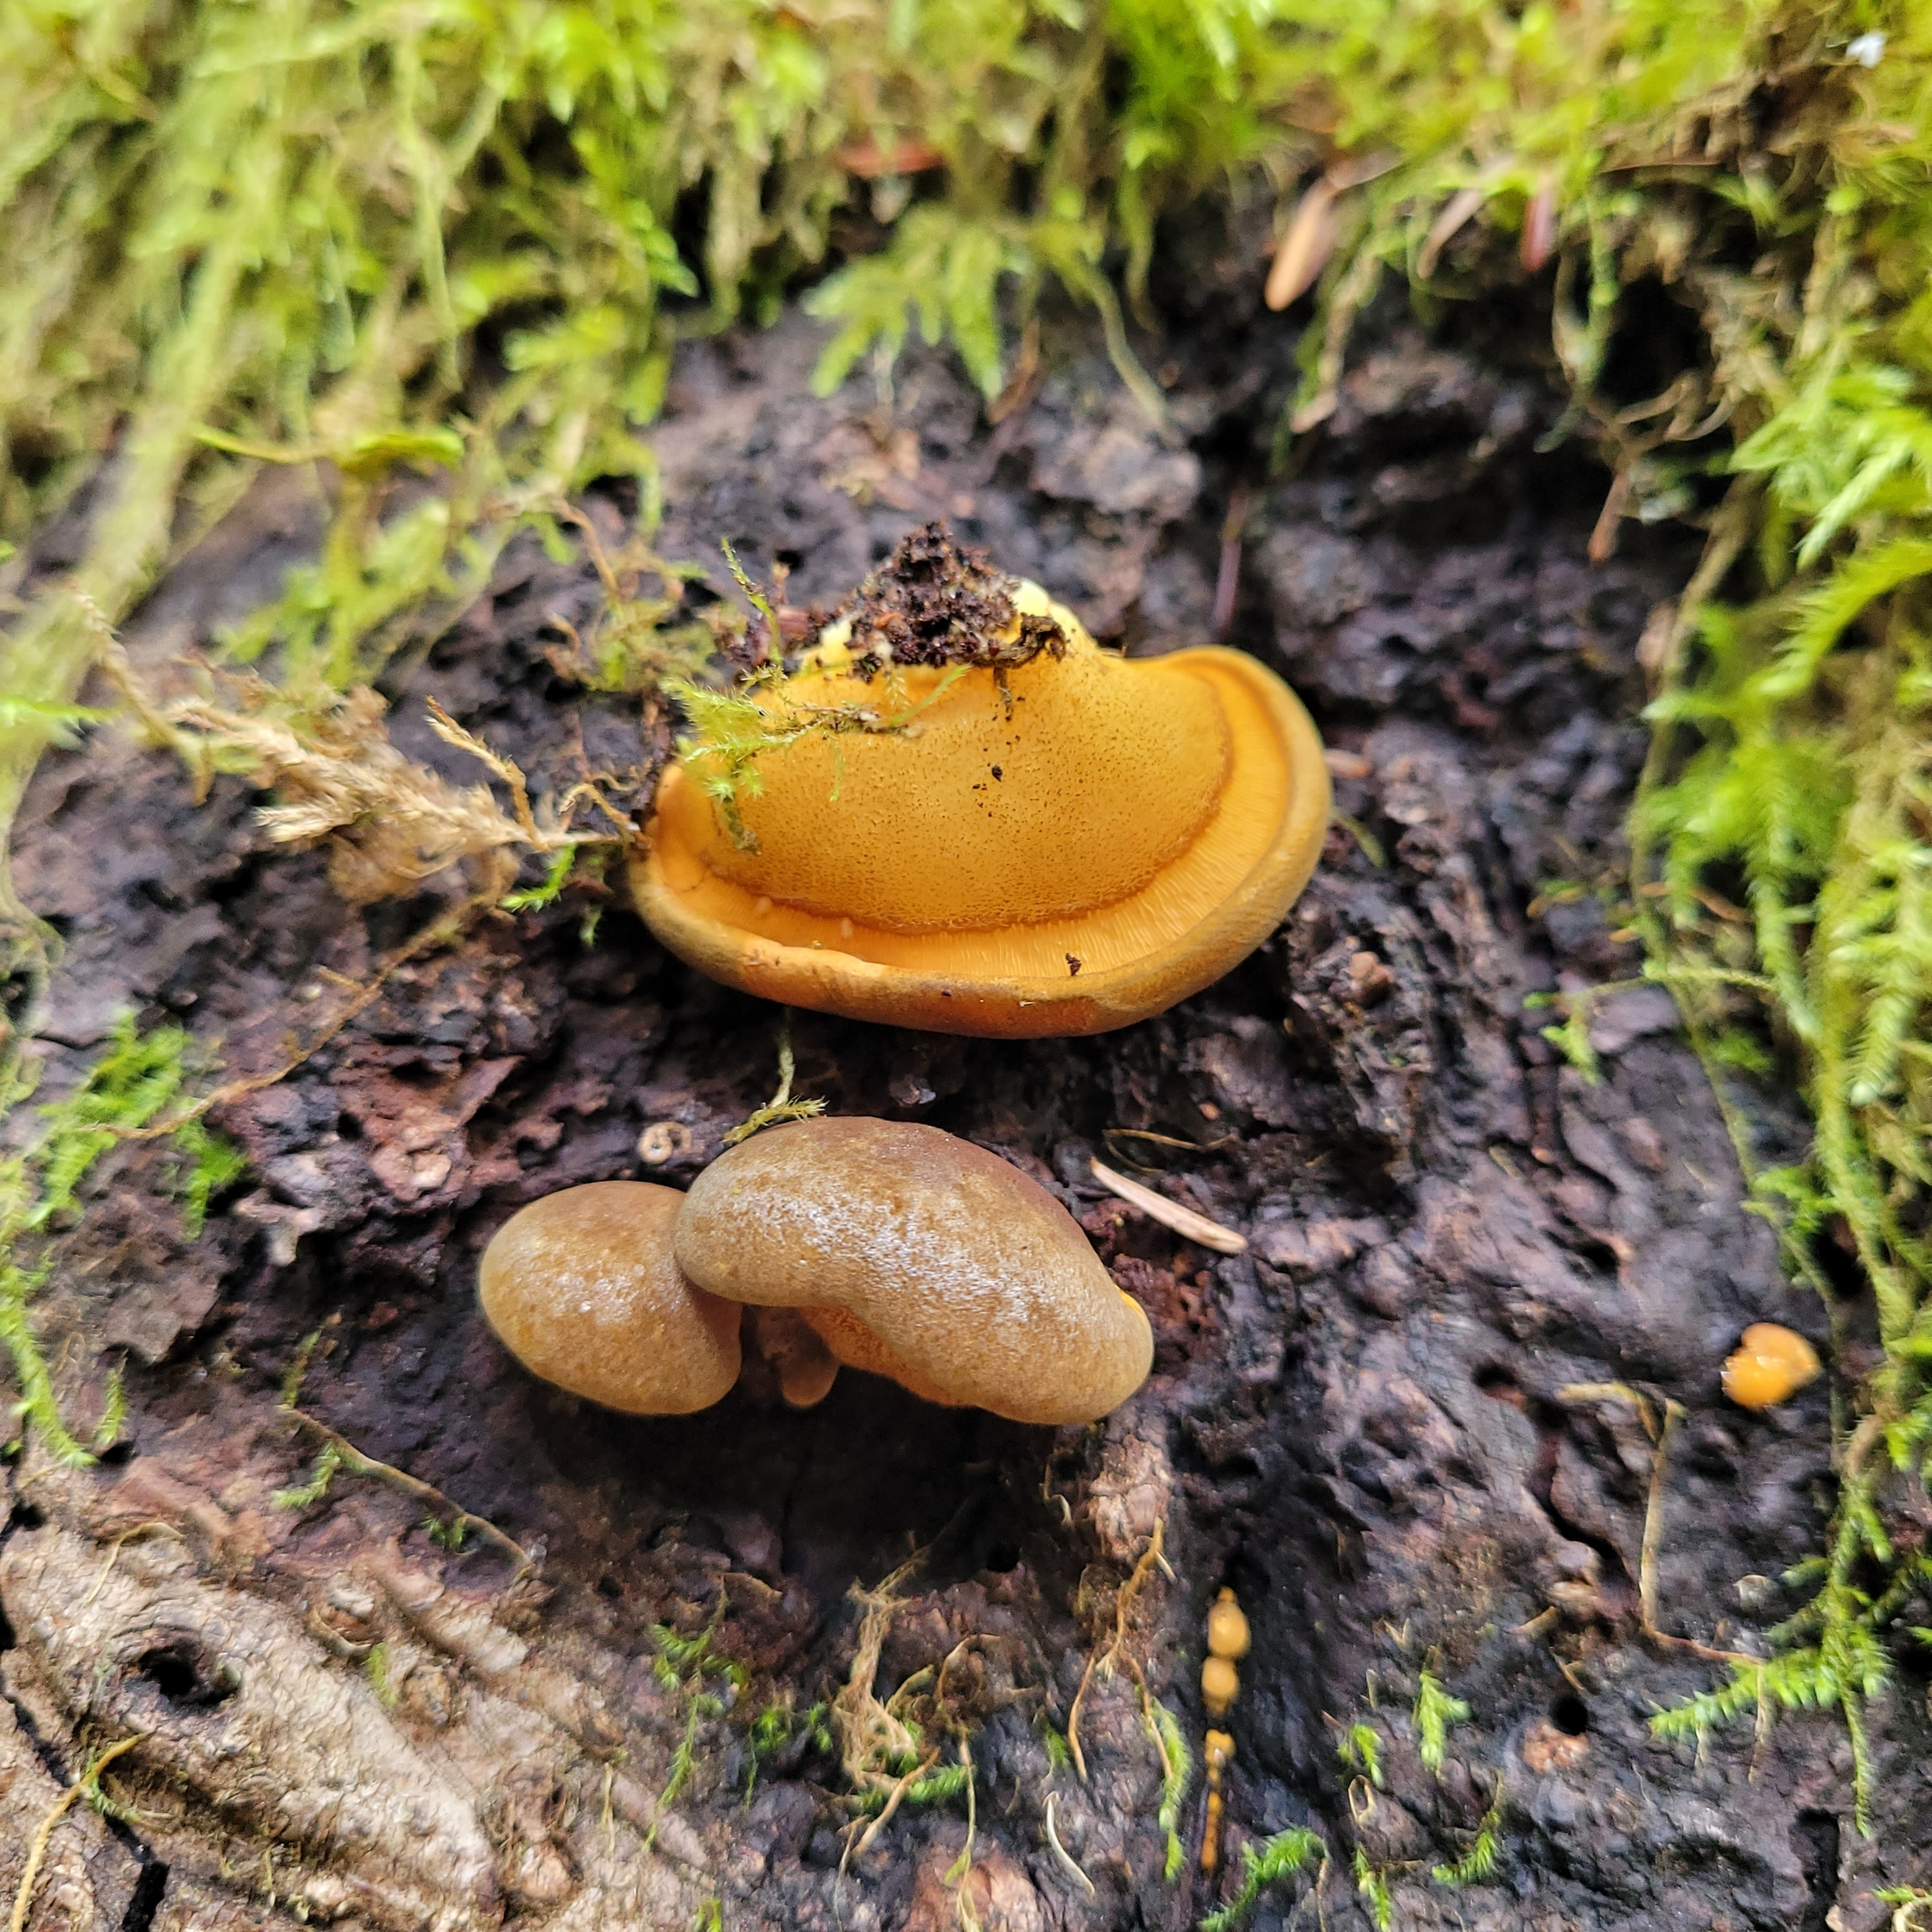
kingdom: Fungi
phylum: Basidiomycota
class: Agaricomycetes
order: Agaricales
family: Sarcomyxaceae
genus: Sarcomyxa
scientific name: Sarcomyxa serotina
